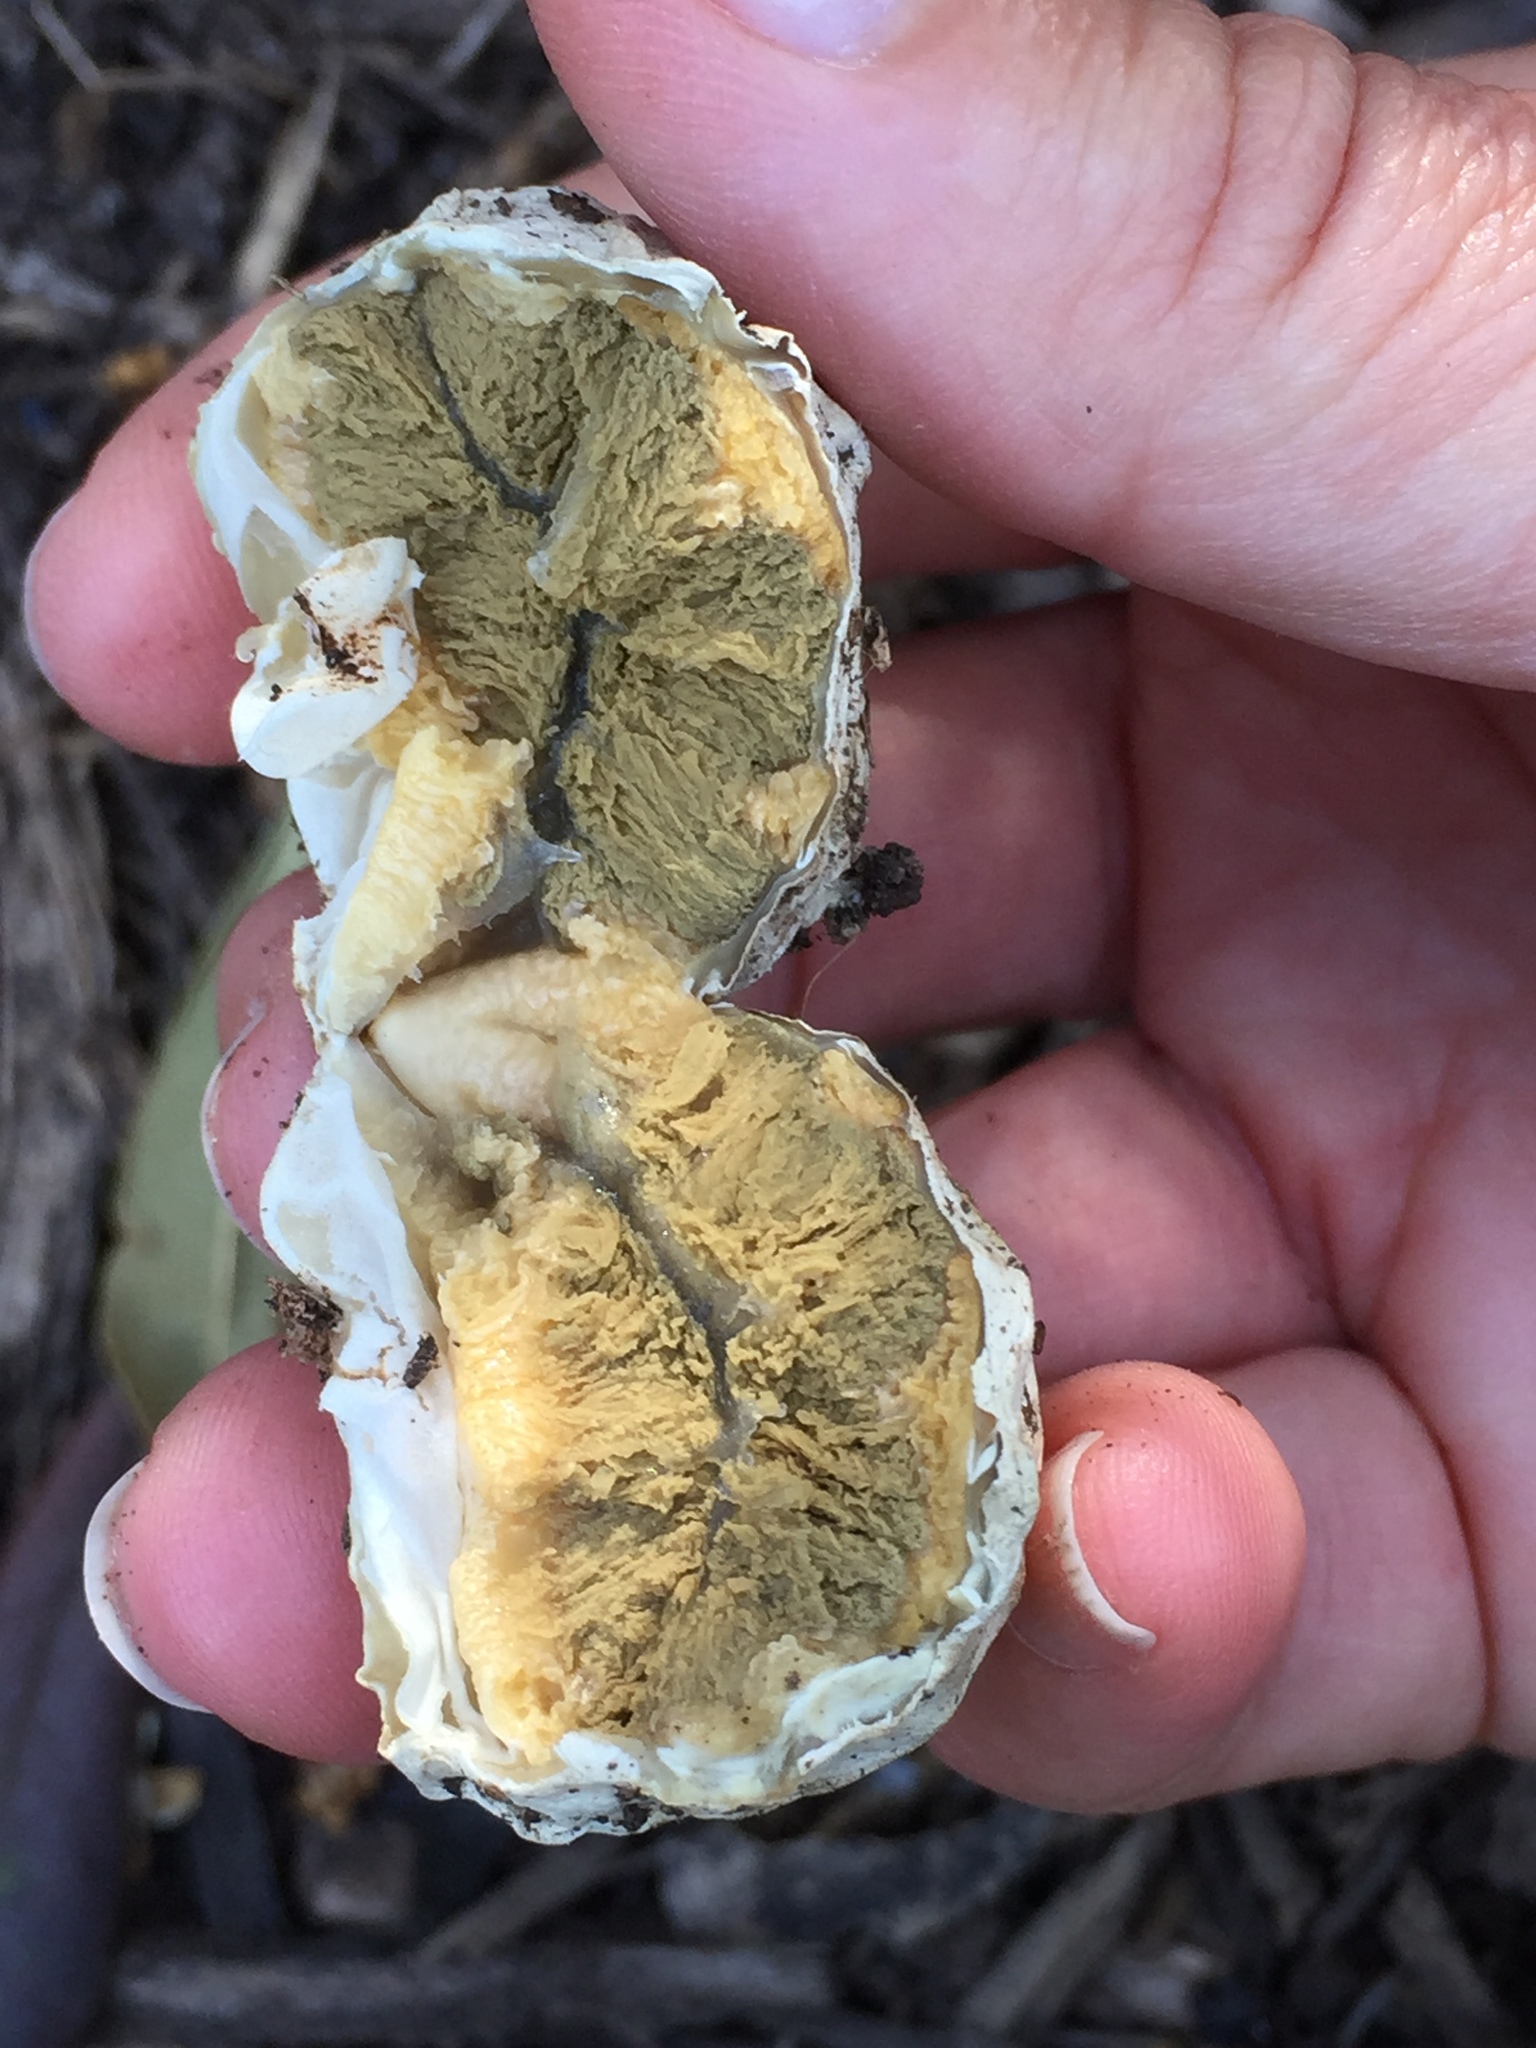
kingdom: Fungi
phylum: Basidiomycota
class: Agaricomycetes
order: Phallales
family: Phallaceae
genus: Clathrus
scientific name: Clathrus ruber
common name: Red cage
